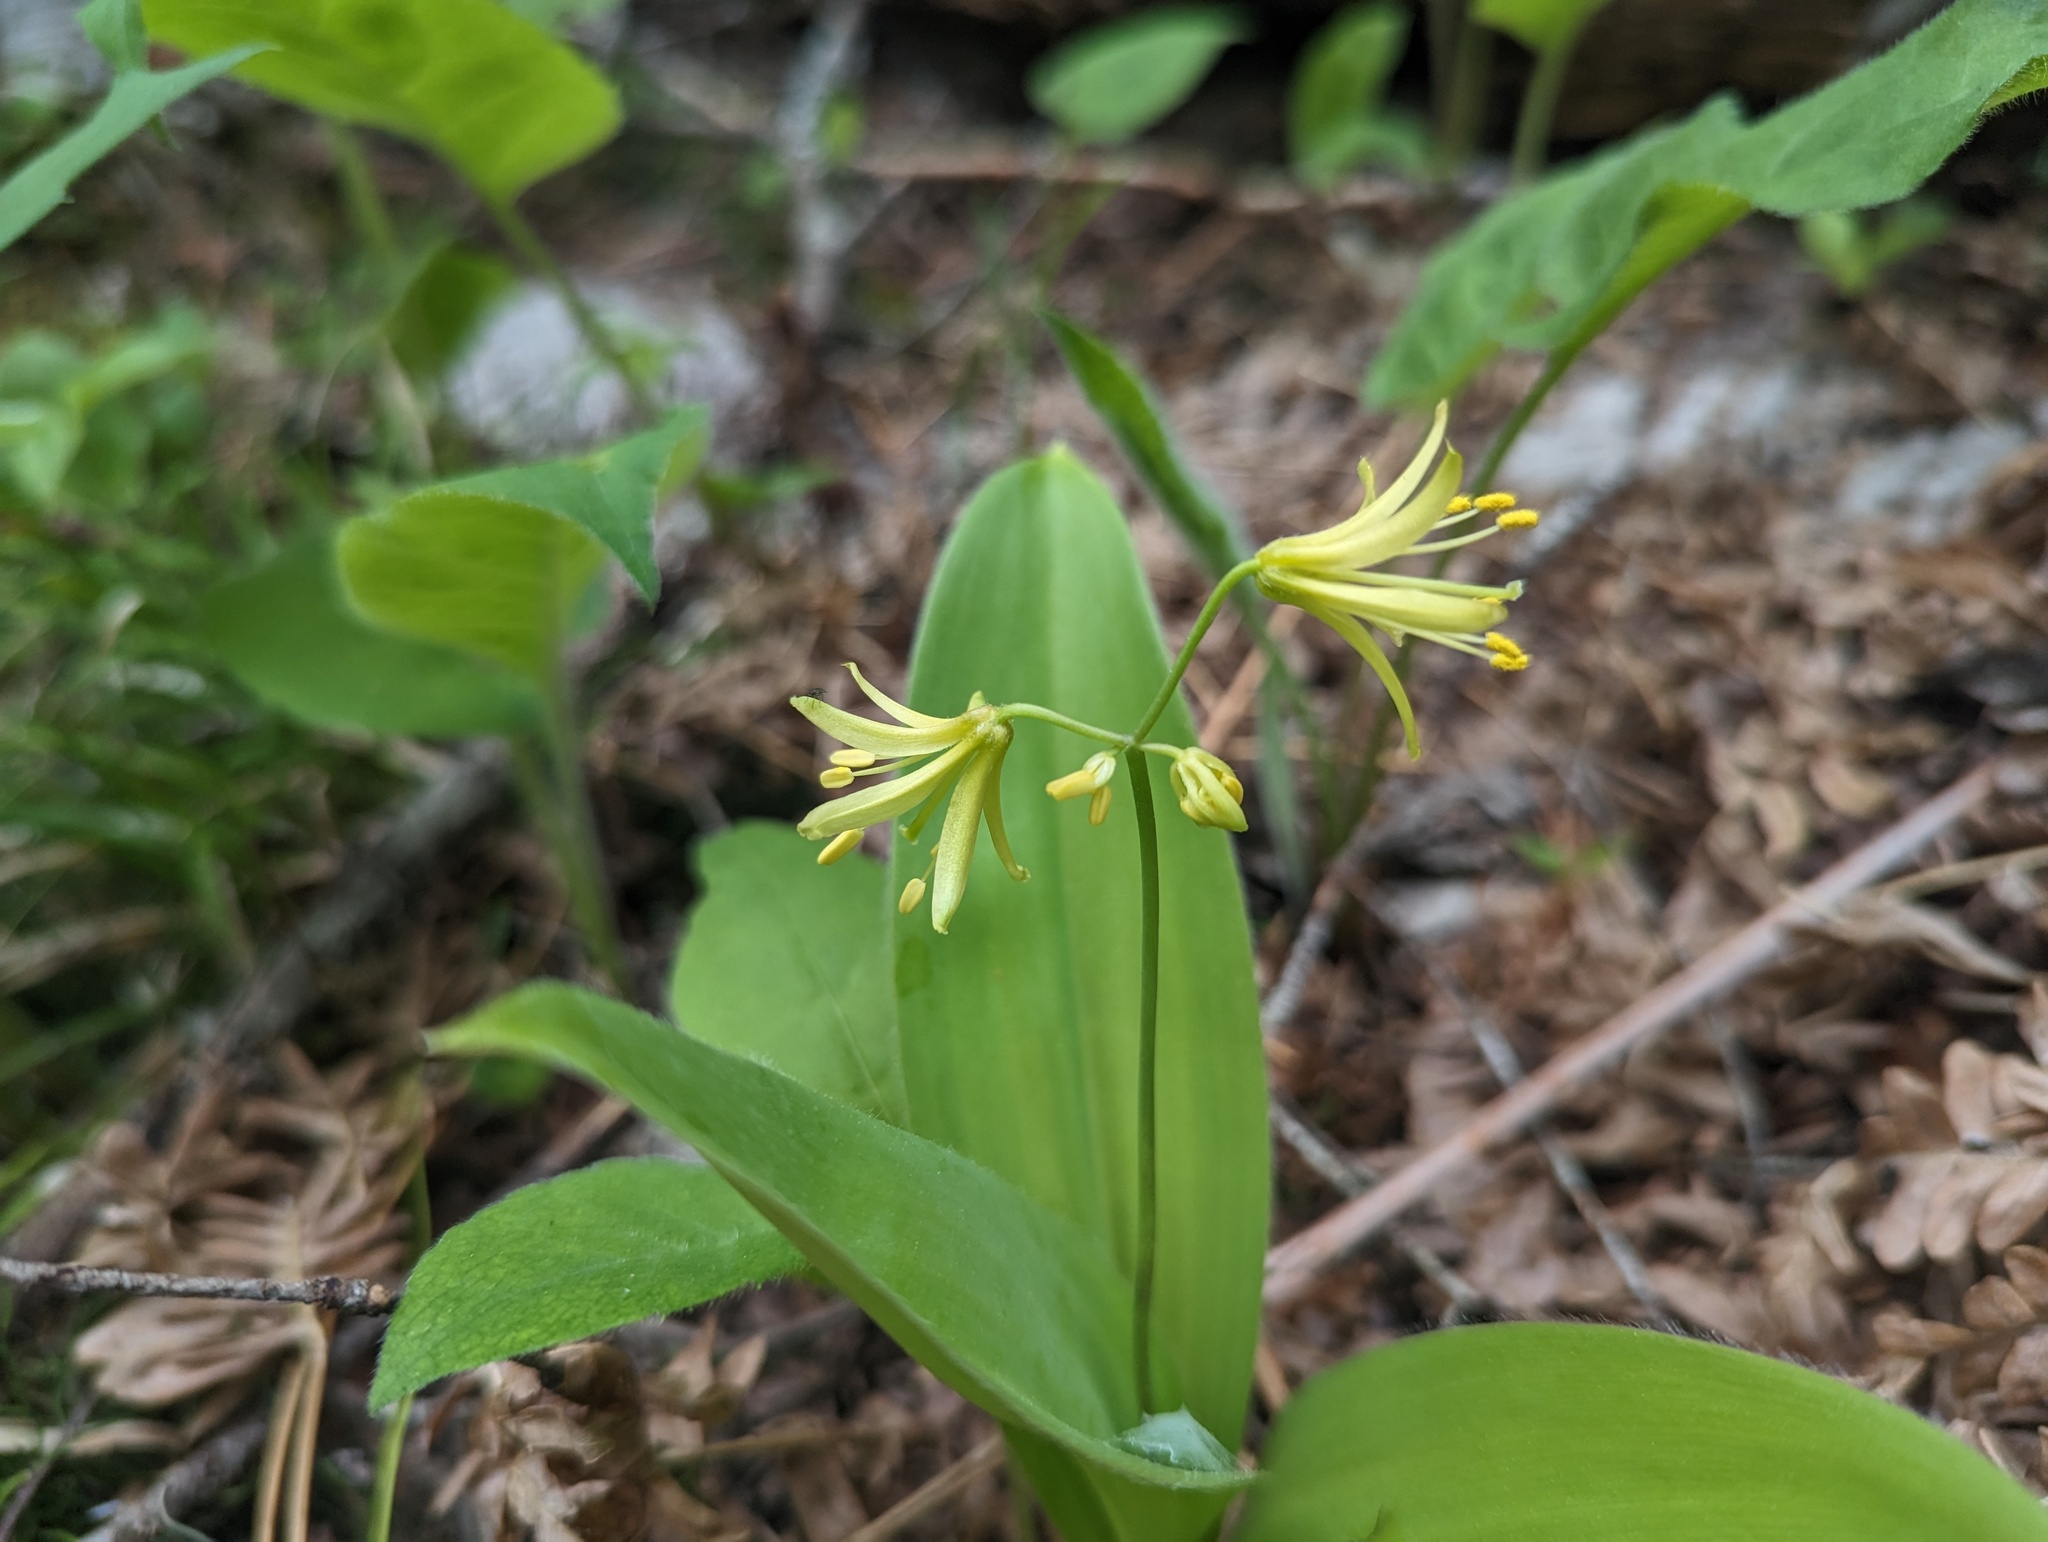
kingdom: Plantae
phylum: Tracheophyta
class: Liliopsida
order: Liliales
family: Liliaceae
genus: Clintonia
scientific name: Clintonia borealis
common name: Yellow clintonia
